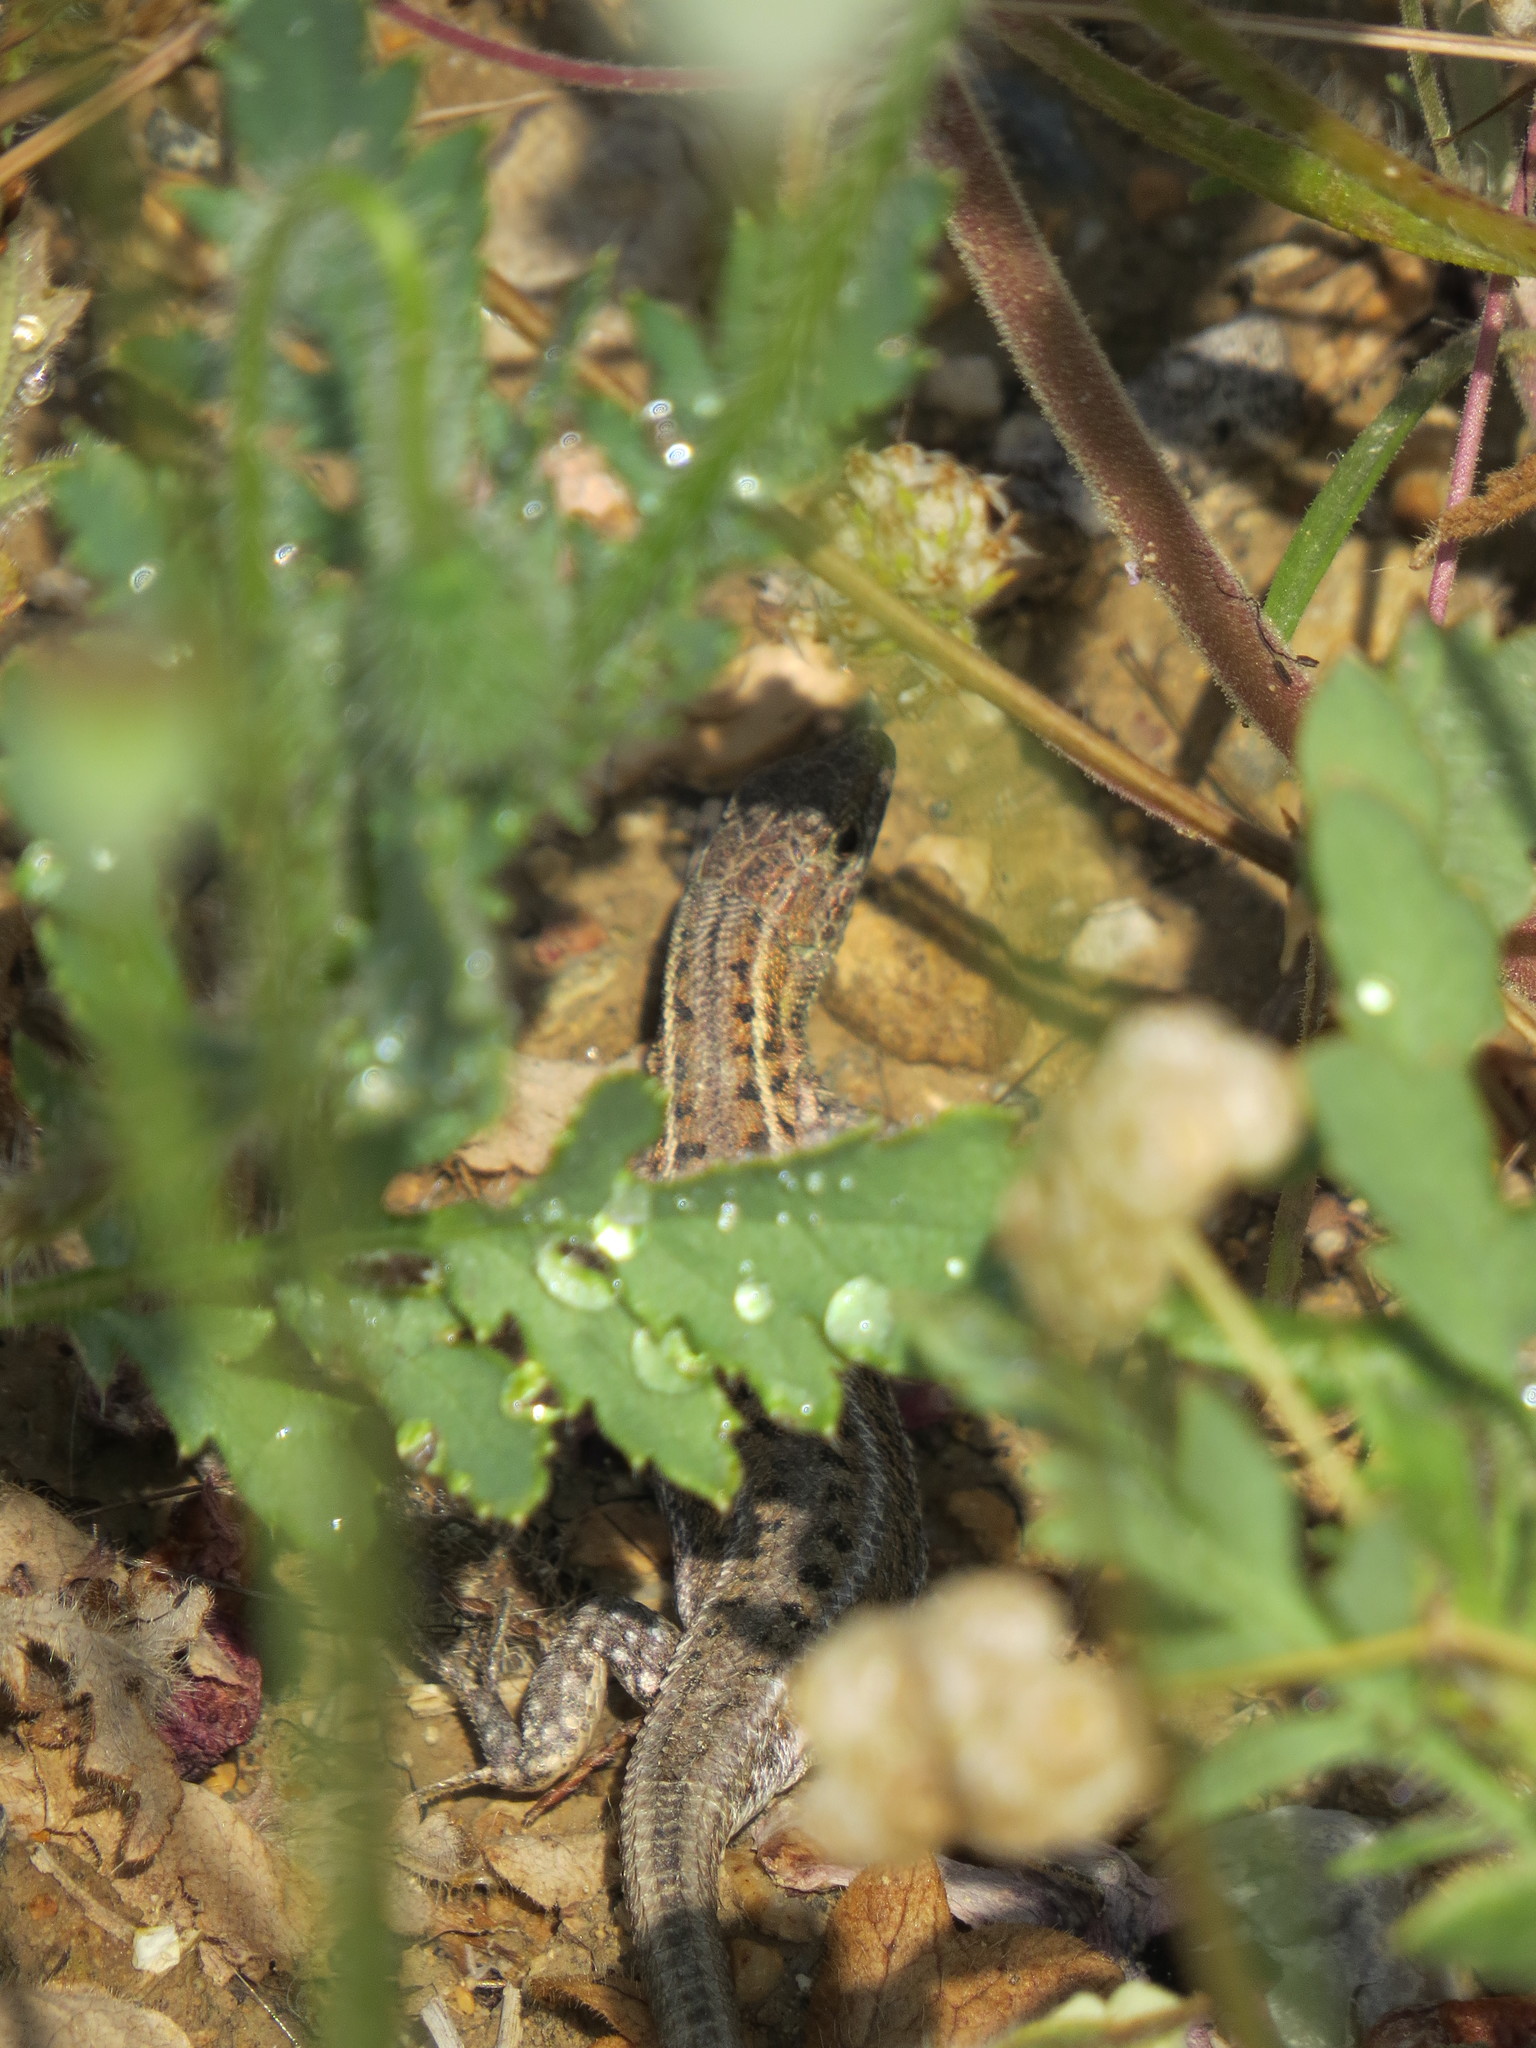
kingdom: Animalia
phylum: Chordata
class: Squamata
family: Lacertidae
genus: Ophisops
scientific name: Ophisops elegans
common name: Snake-eyed lizard
